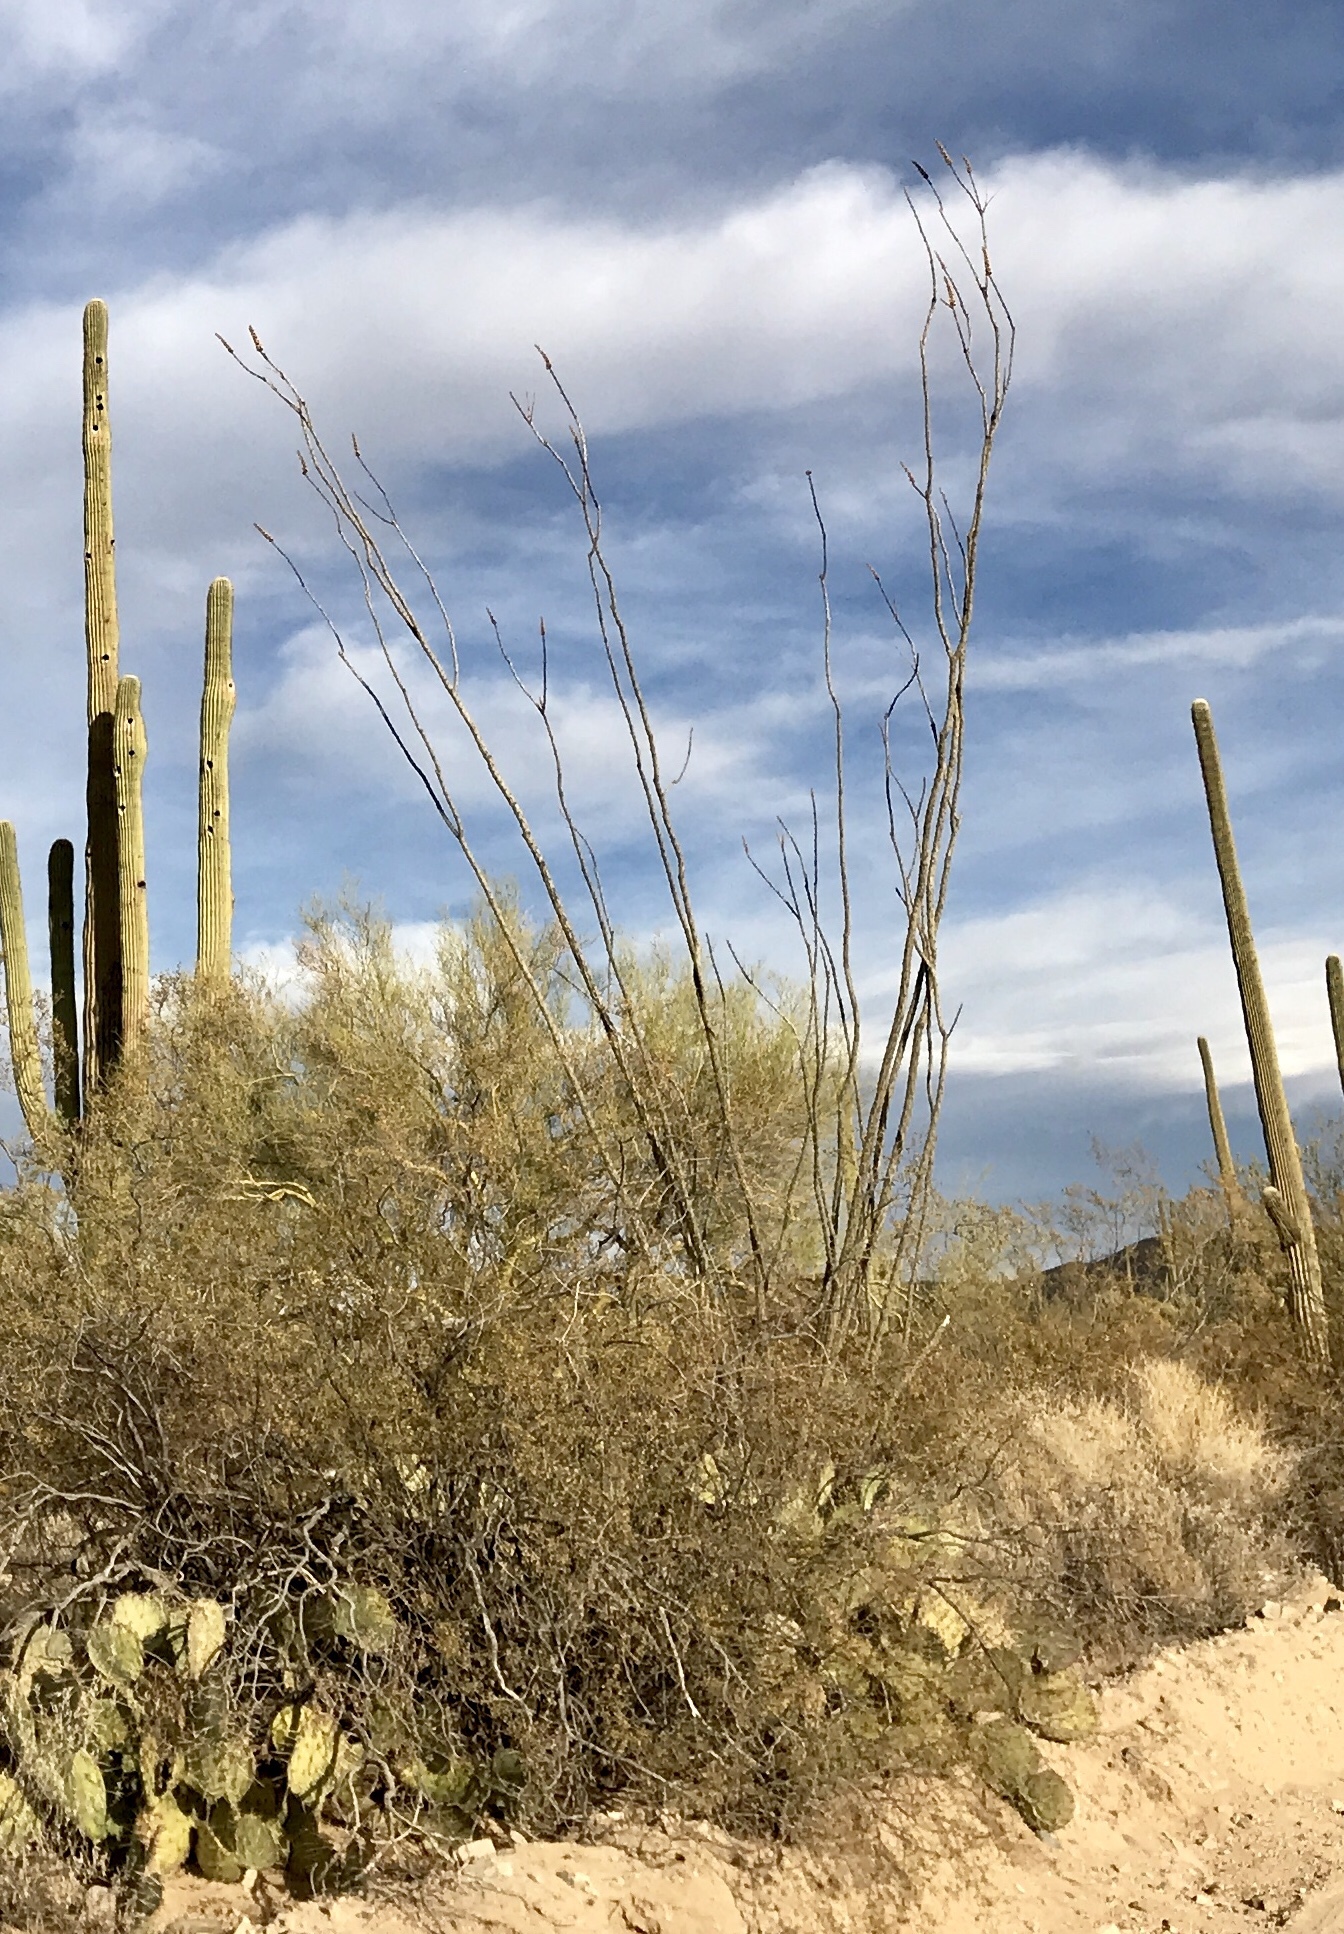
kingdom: Plantae
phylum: Tracheophyta
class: Magnoliopsida
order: Ericales
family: Fouquieriaceae
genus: Fouquieria
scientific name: Fouquieria splendens
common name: Vine-cactus
